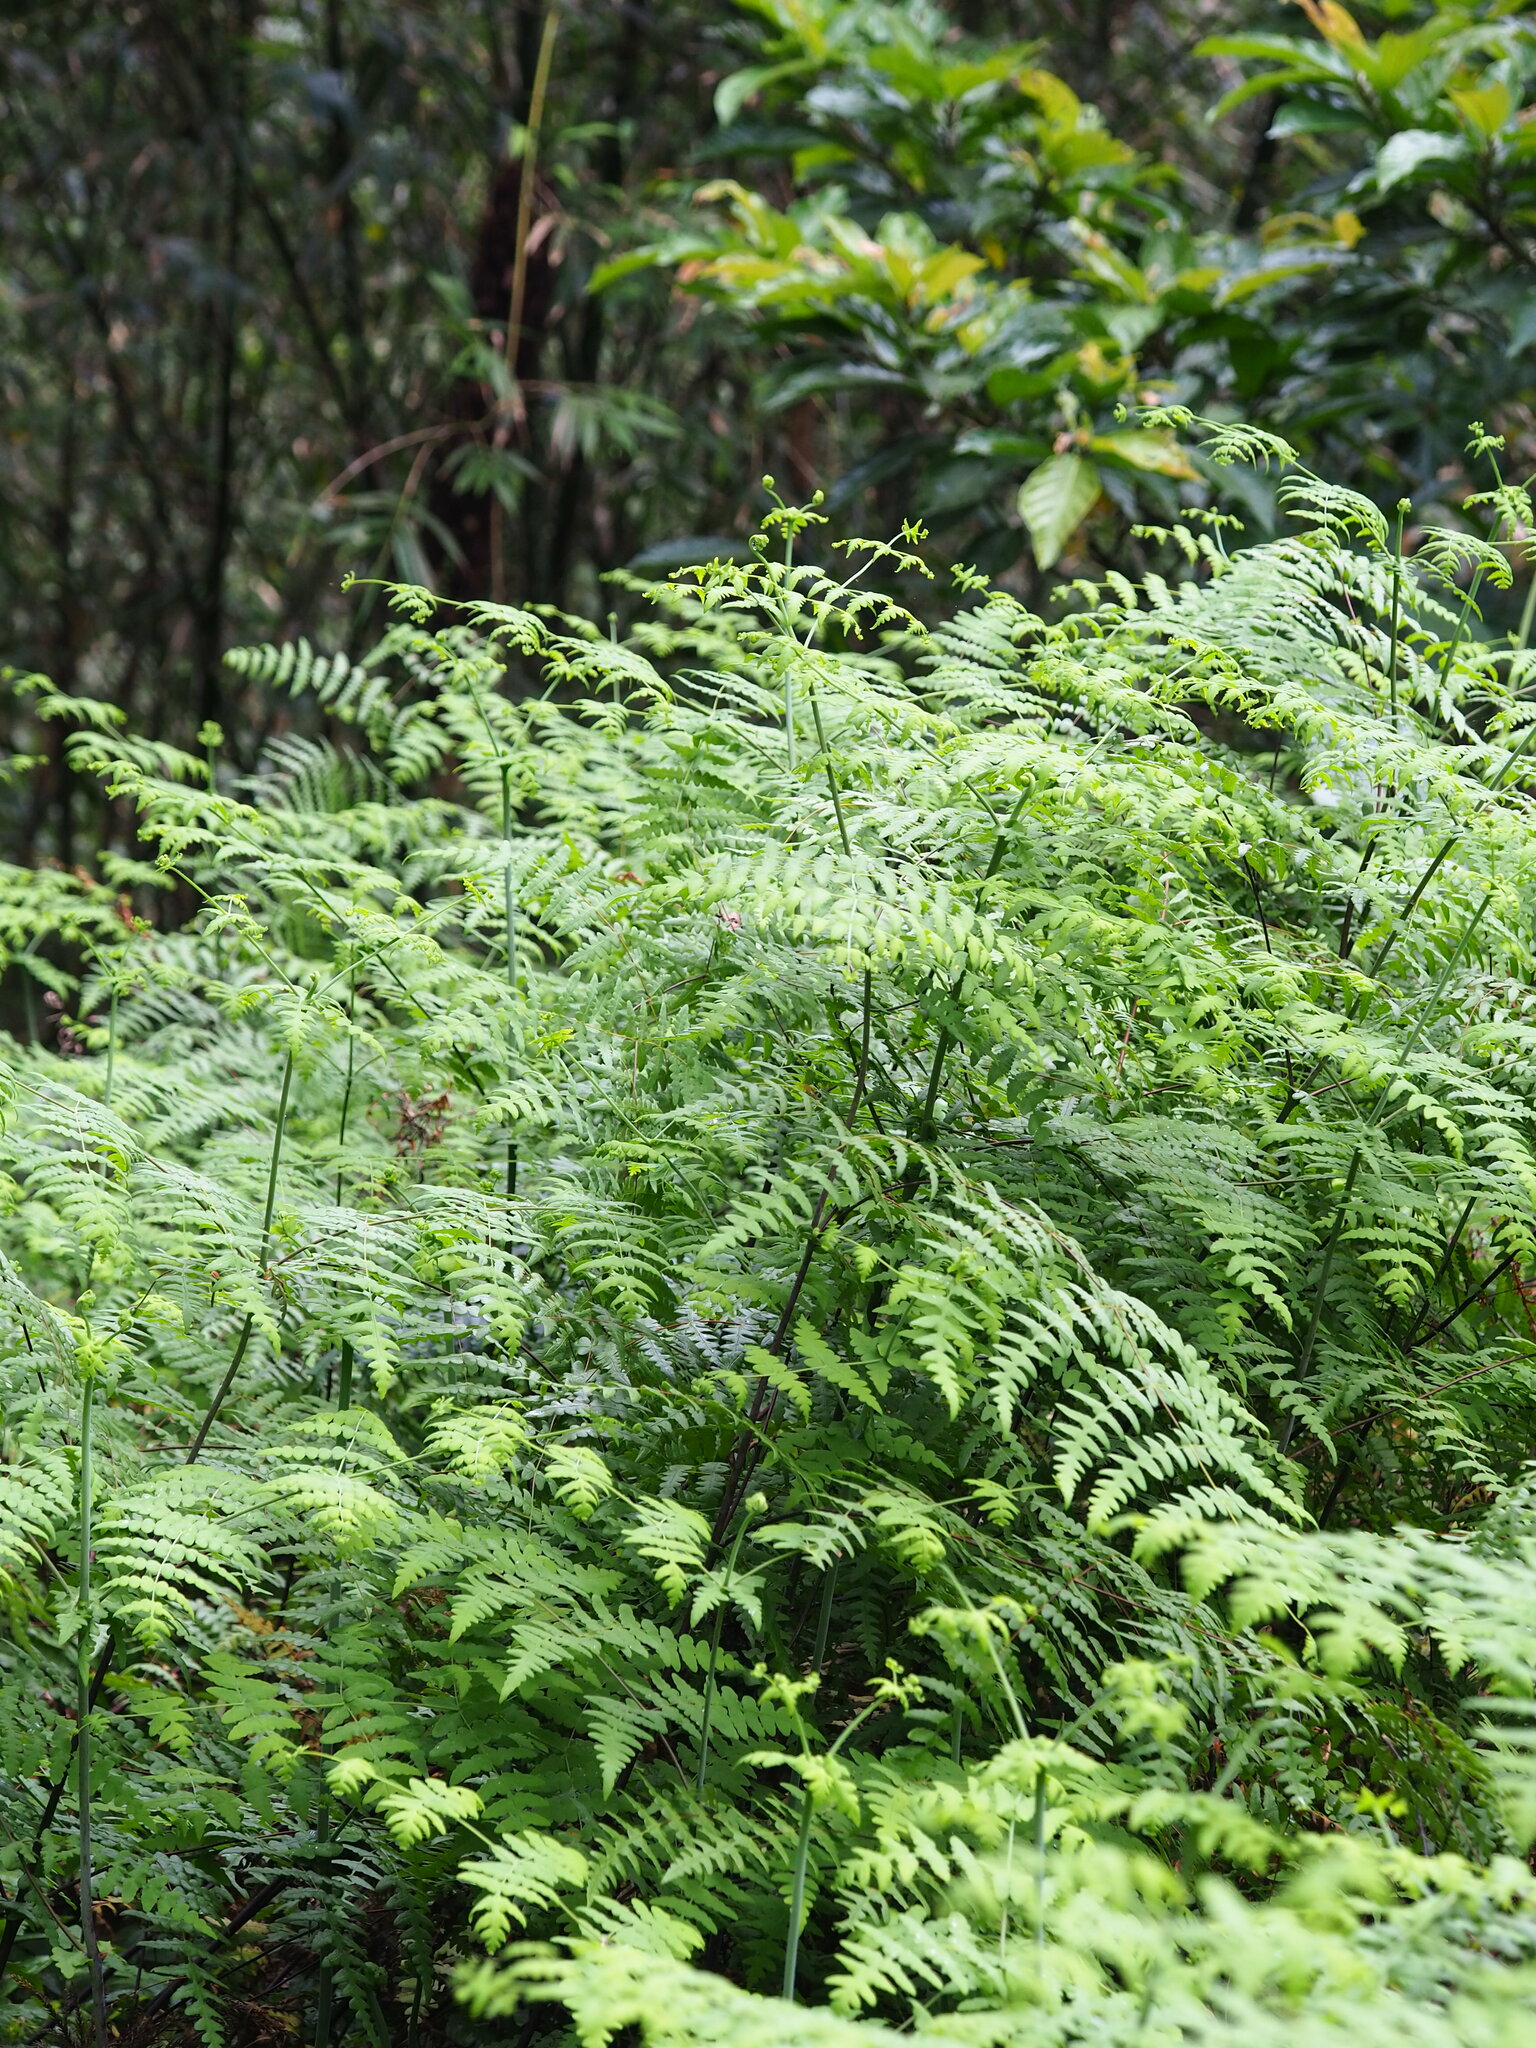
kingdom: Plantae
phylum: Tracheophyta
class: Polypodiopsida
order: Polypodiales
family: Dennstaedtiaceae
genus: Histiopteris
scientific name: Histiopteris incisa
